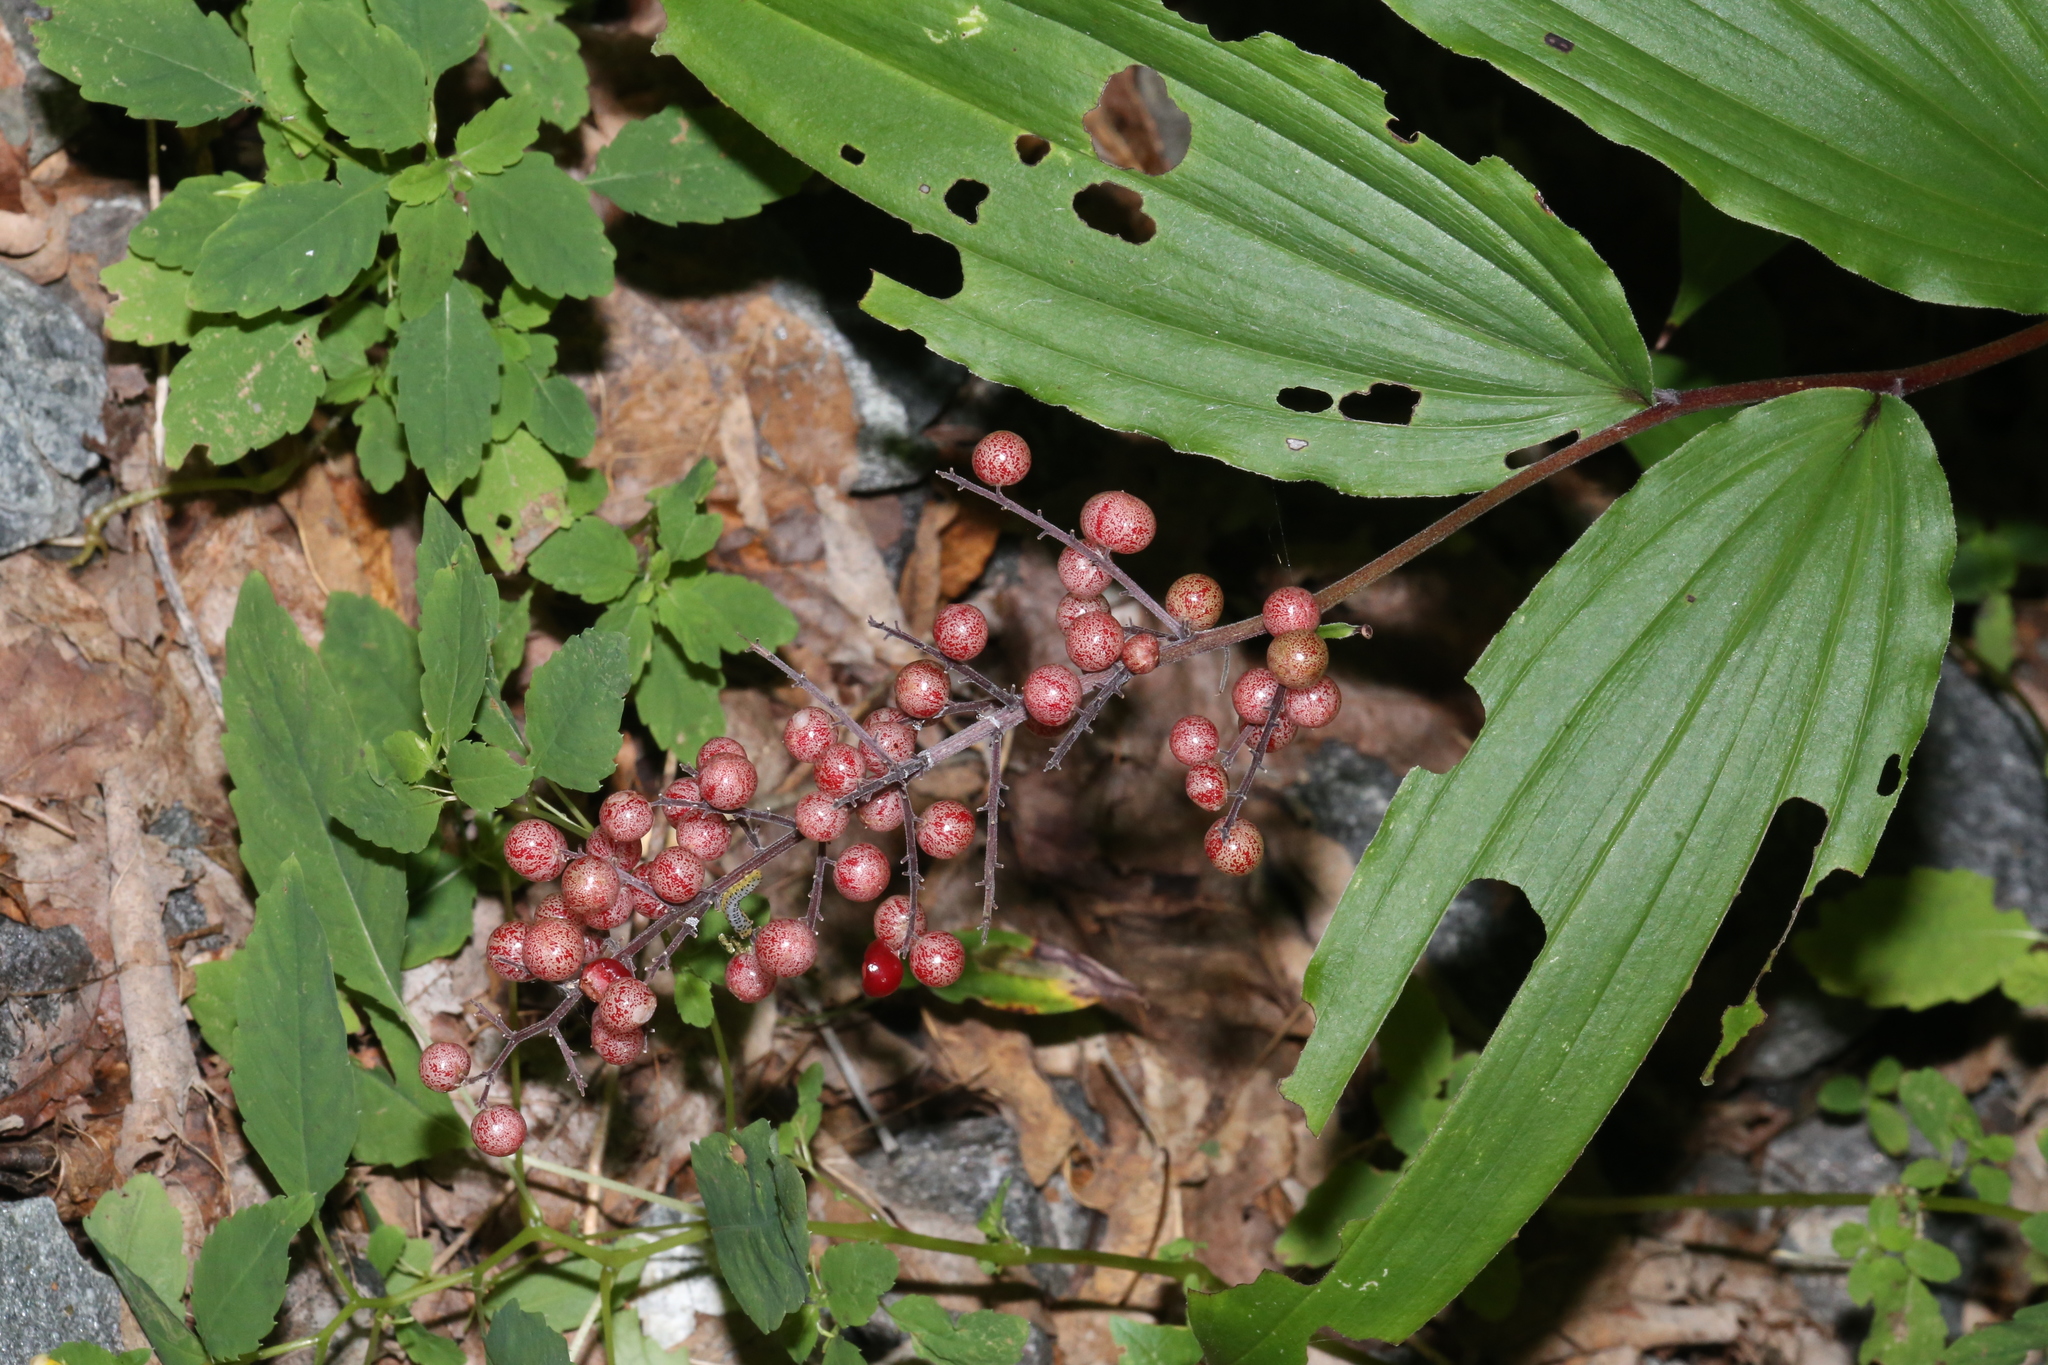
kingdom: Plantae
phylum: Tracheophyta
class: Liliopsida
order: Asparagales
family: Asparagaceae
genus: Maianthemum
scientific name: Maianthemum racemosum
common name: False spikenard
